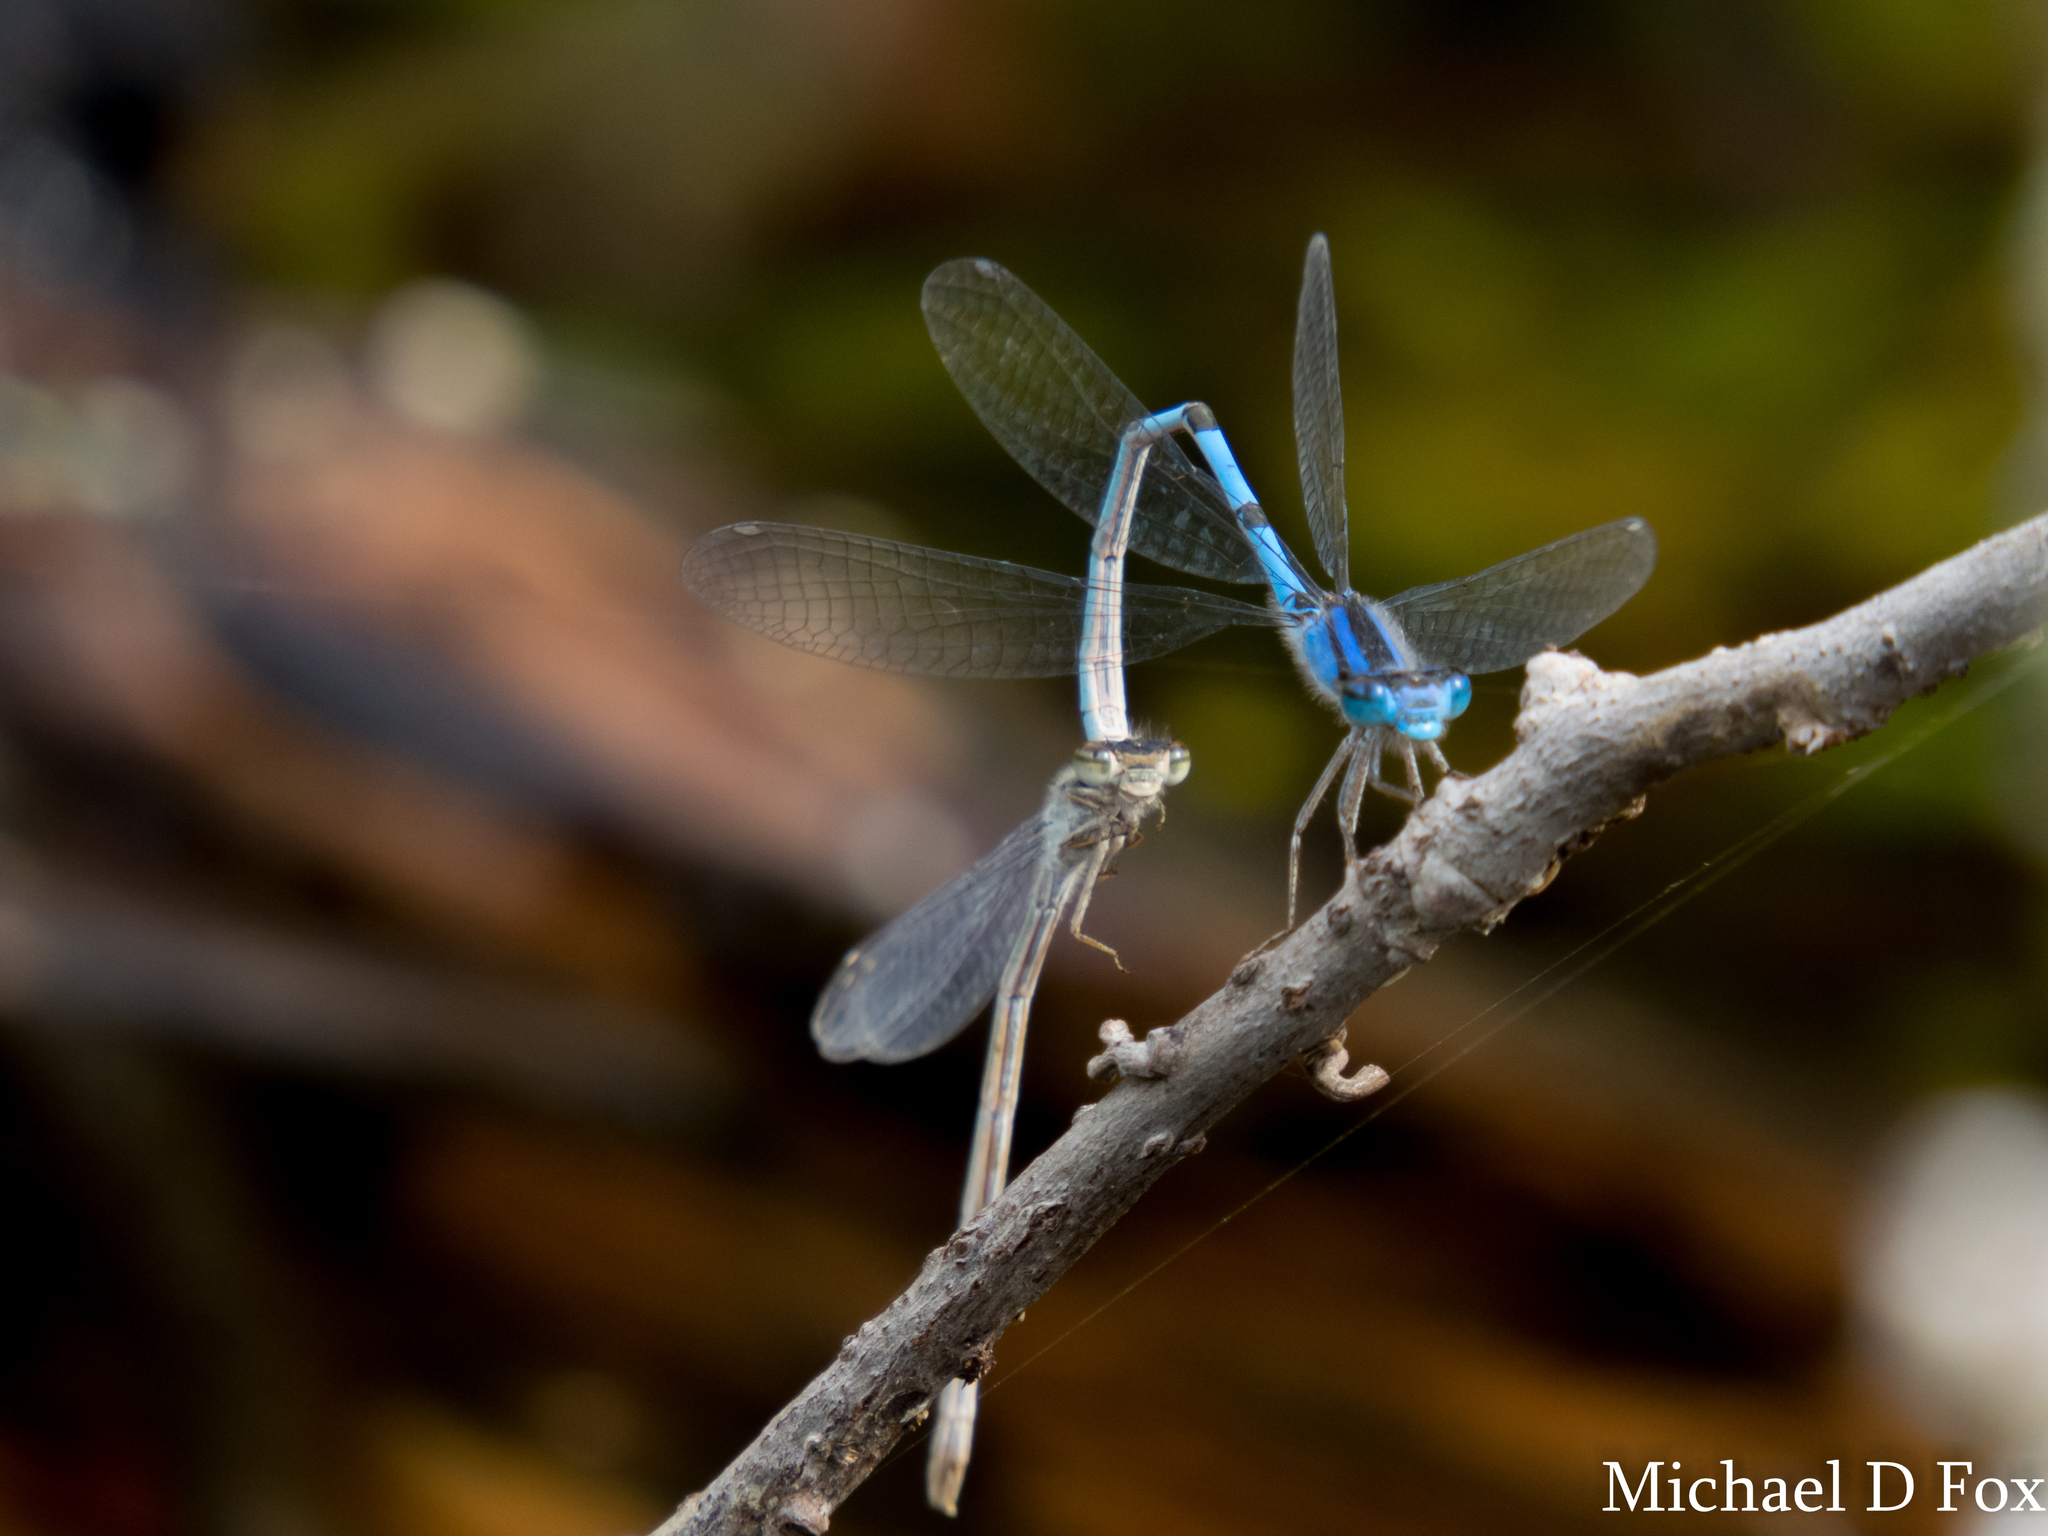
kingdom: Animalia
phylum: Arthropoda
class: Insecta
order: Odonata
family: Coenagrionidae
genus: Enallagma
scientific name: Enallagma civile
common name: Damselfly
